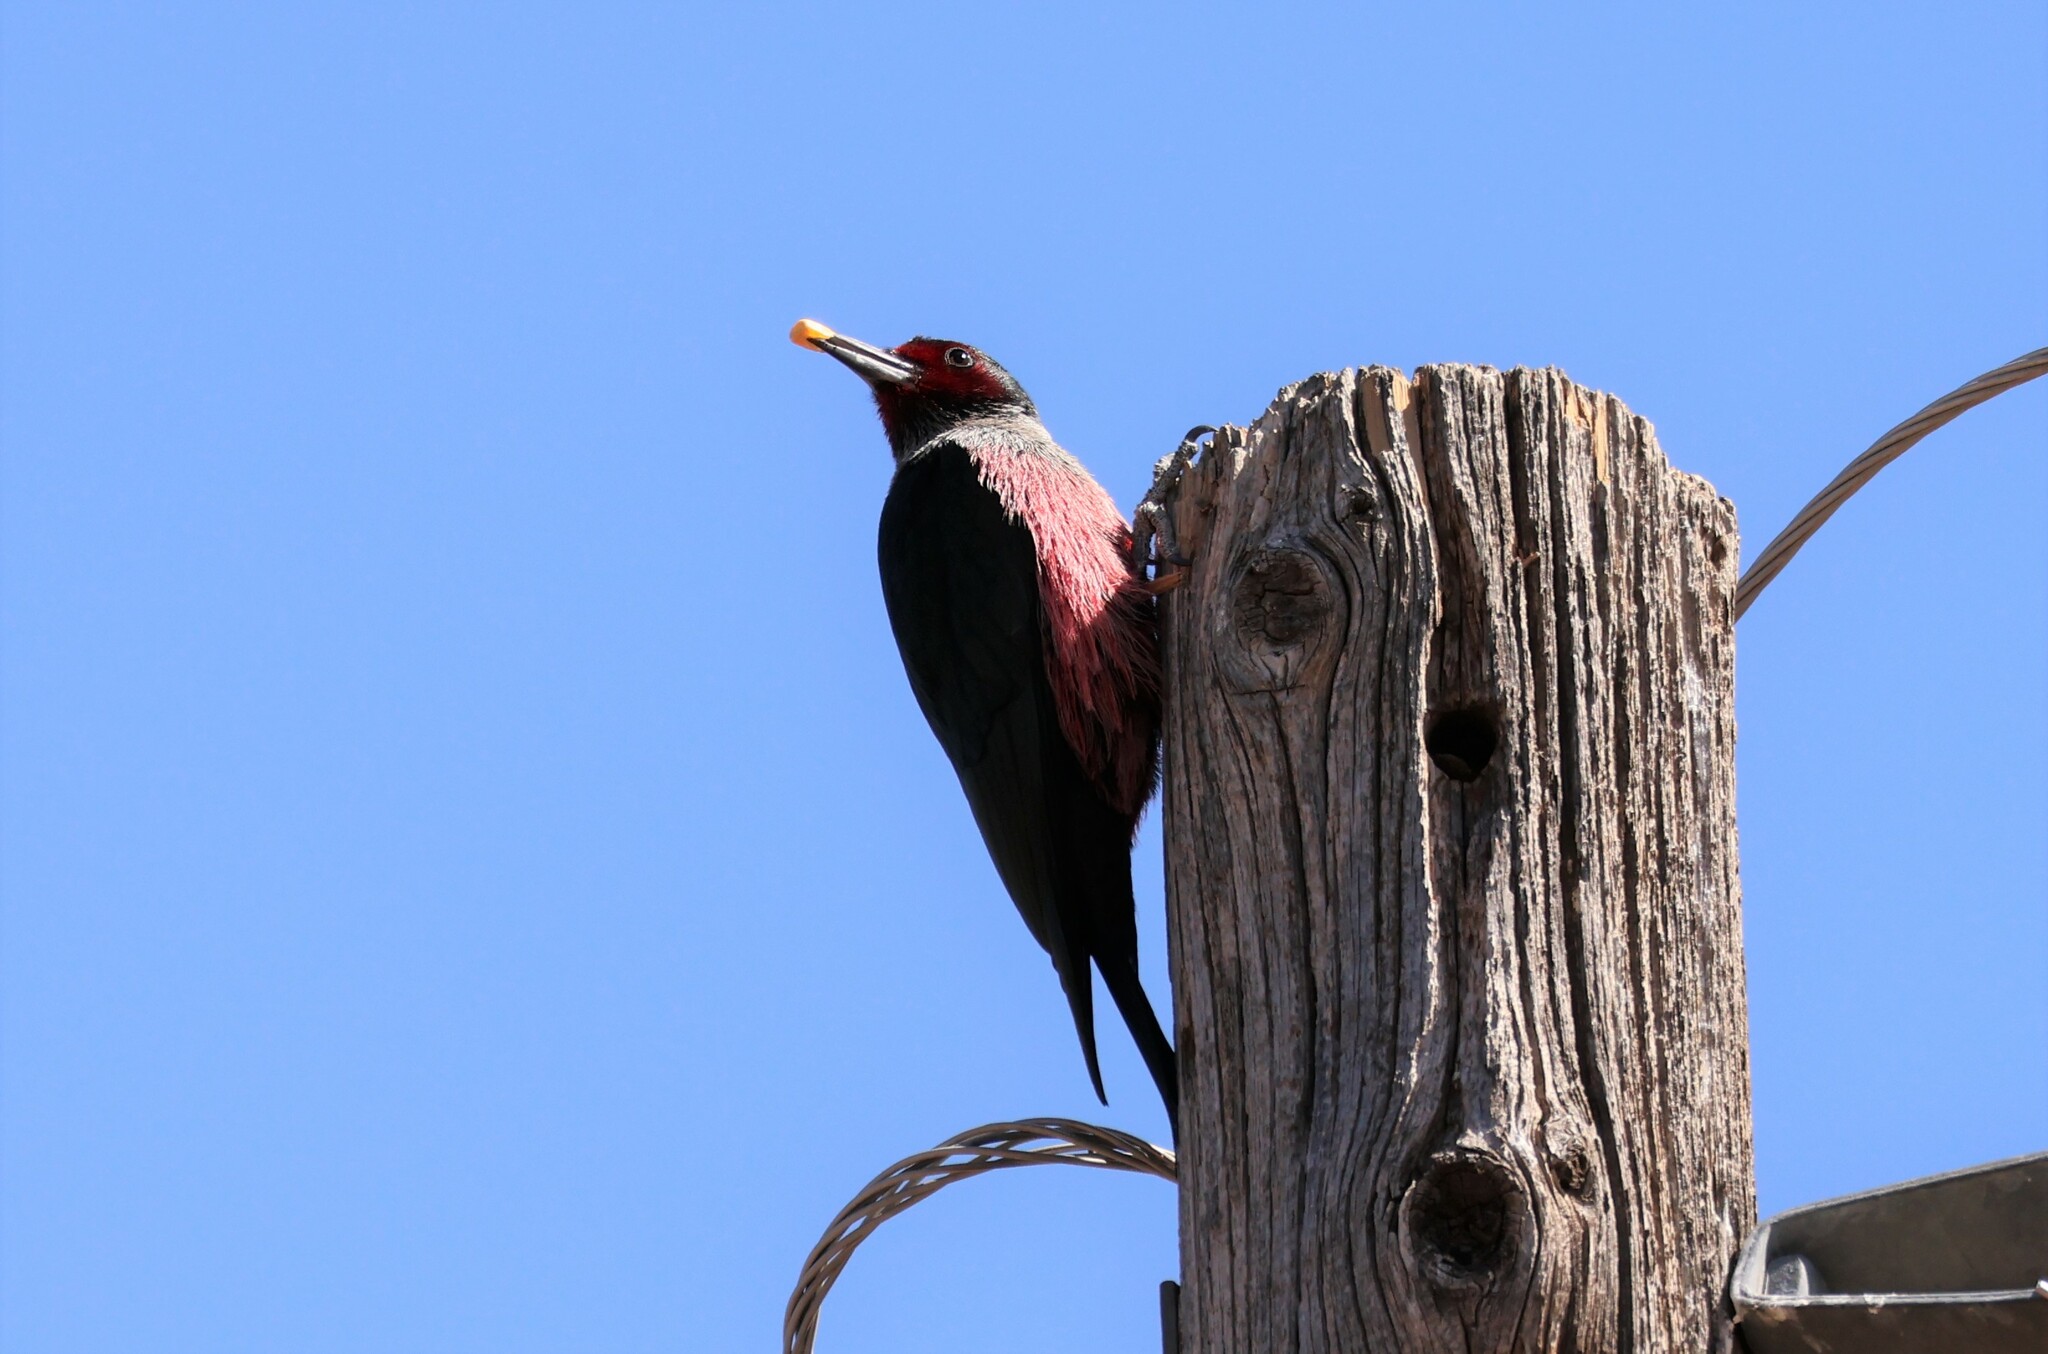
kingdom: Animalia
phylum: Chordata
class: Aves
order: Piciformes
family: Picidae
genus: Melanerpes
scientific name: Melanerpes lewis
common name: Lewis's woodpecker
